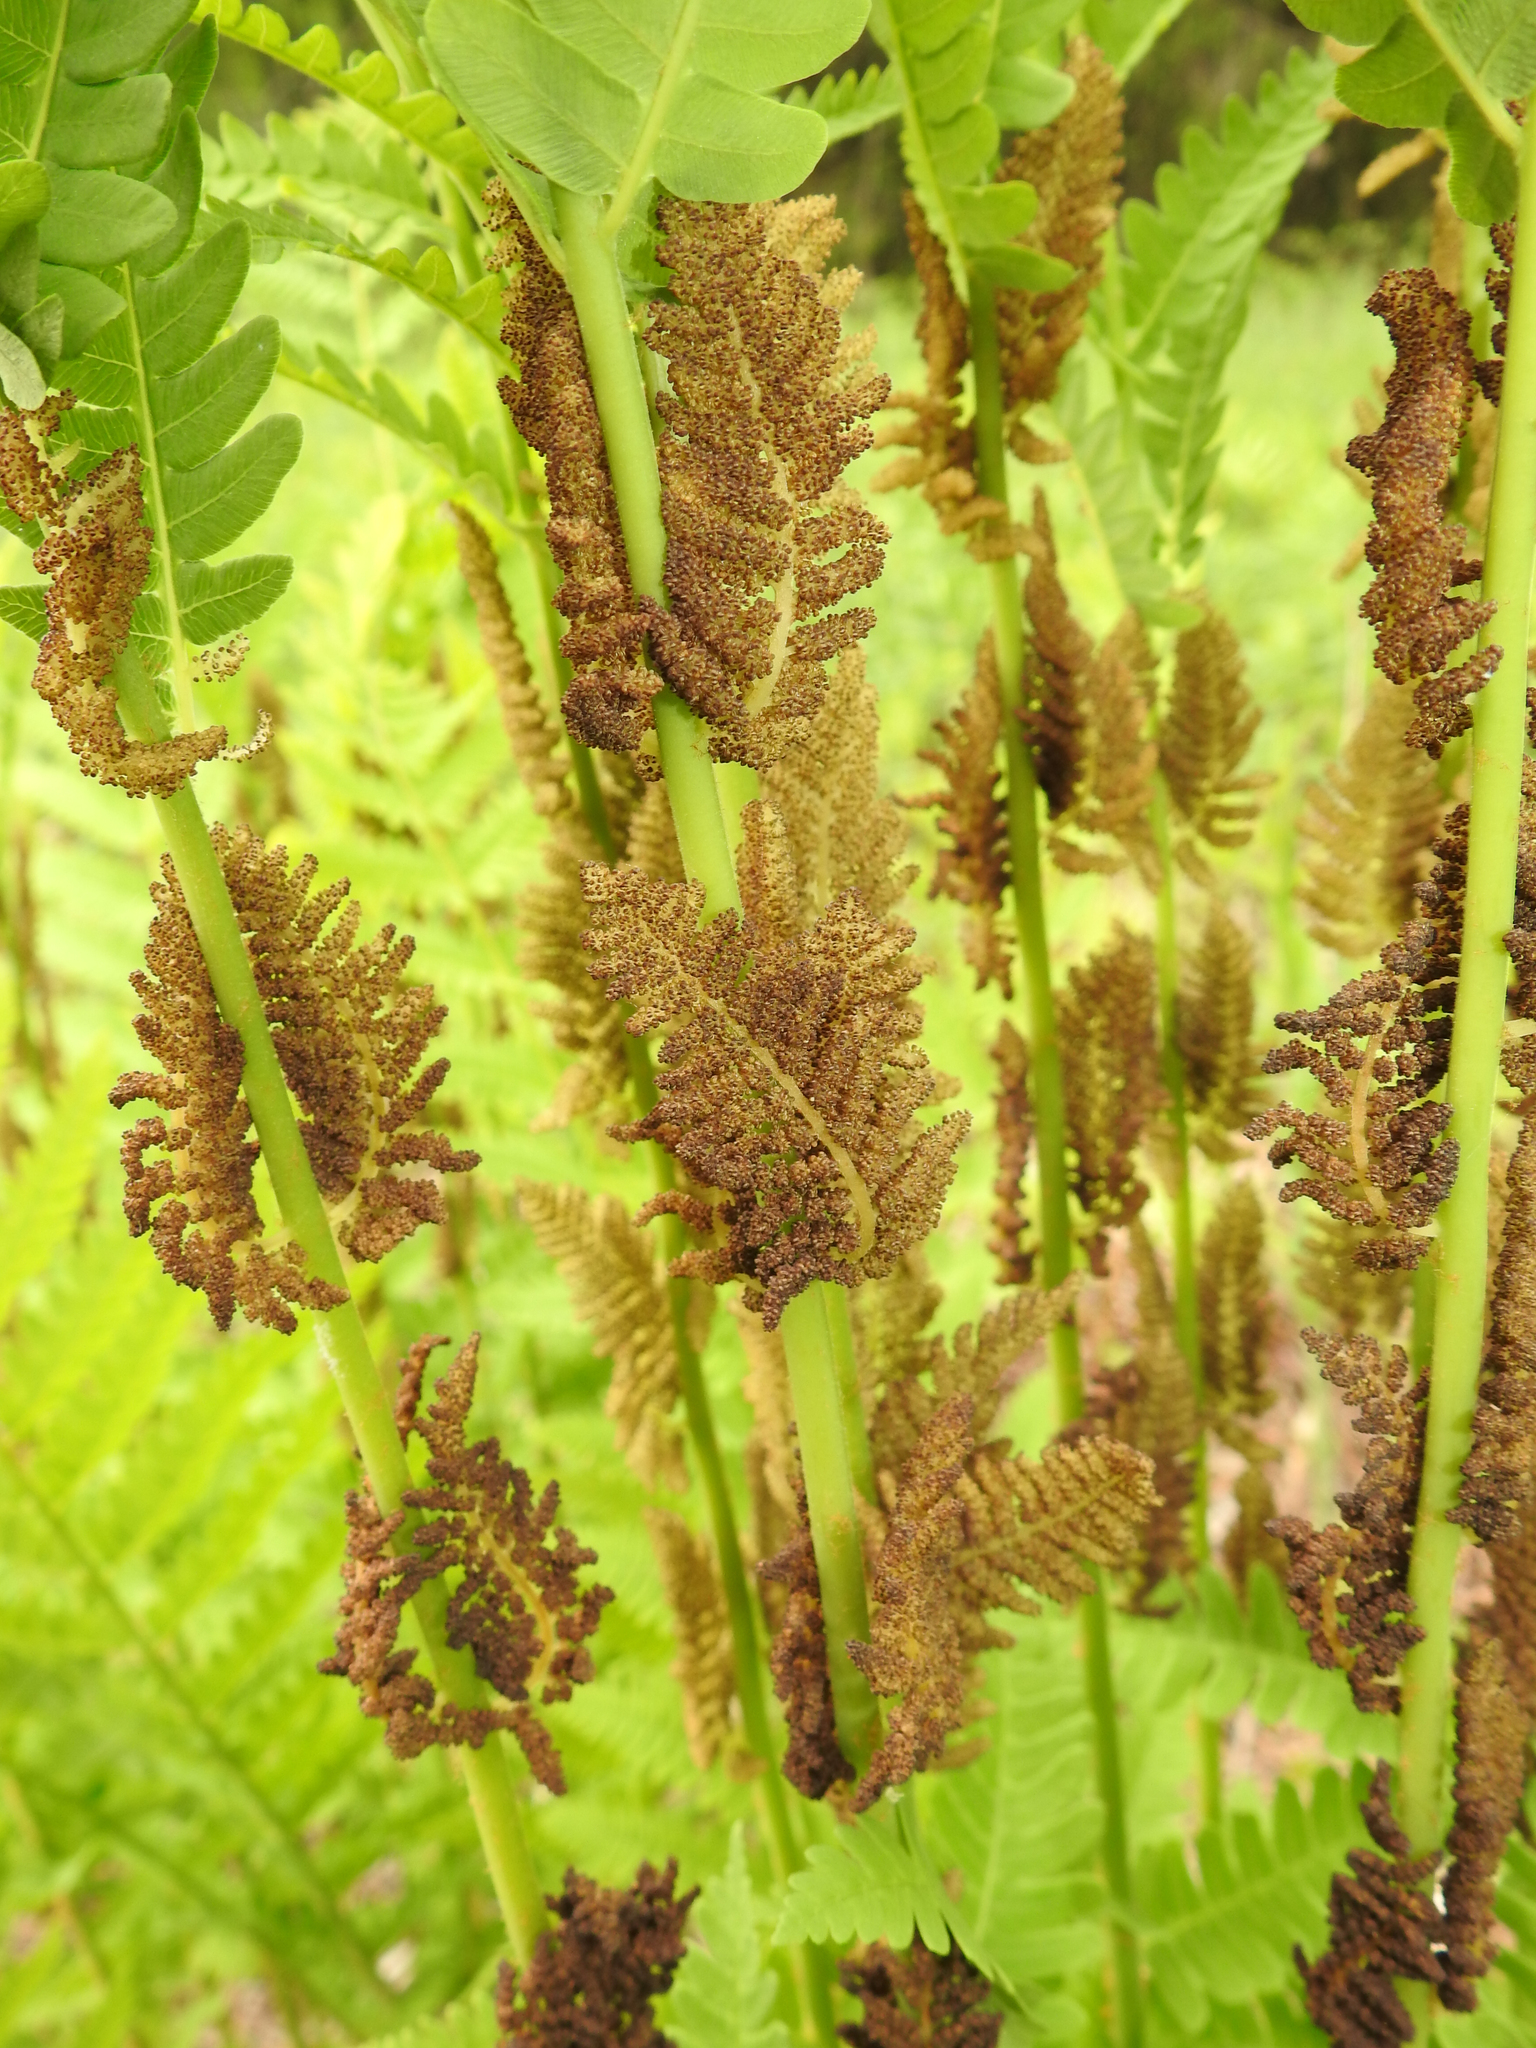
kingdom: Plantae
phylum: Tracheophyta
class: Polypodiopsida
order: Osmundales
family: Osmundaceae
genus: Claytosmunda
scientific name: Claytosmunda claytoniana
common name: Clayton's fern
